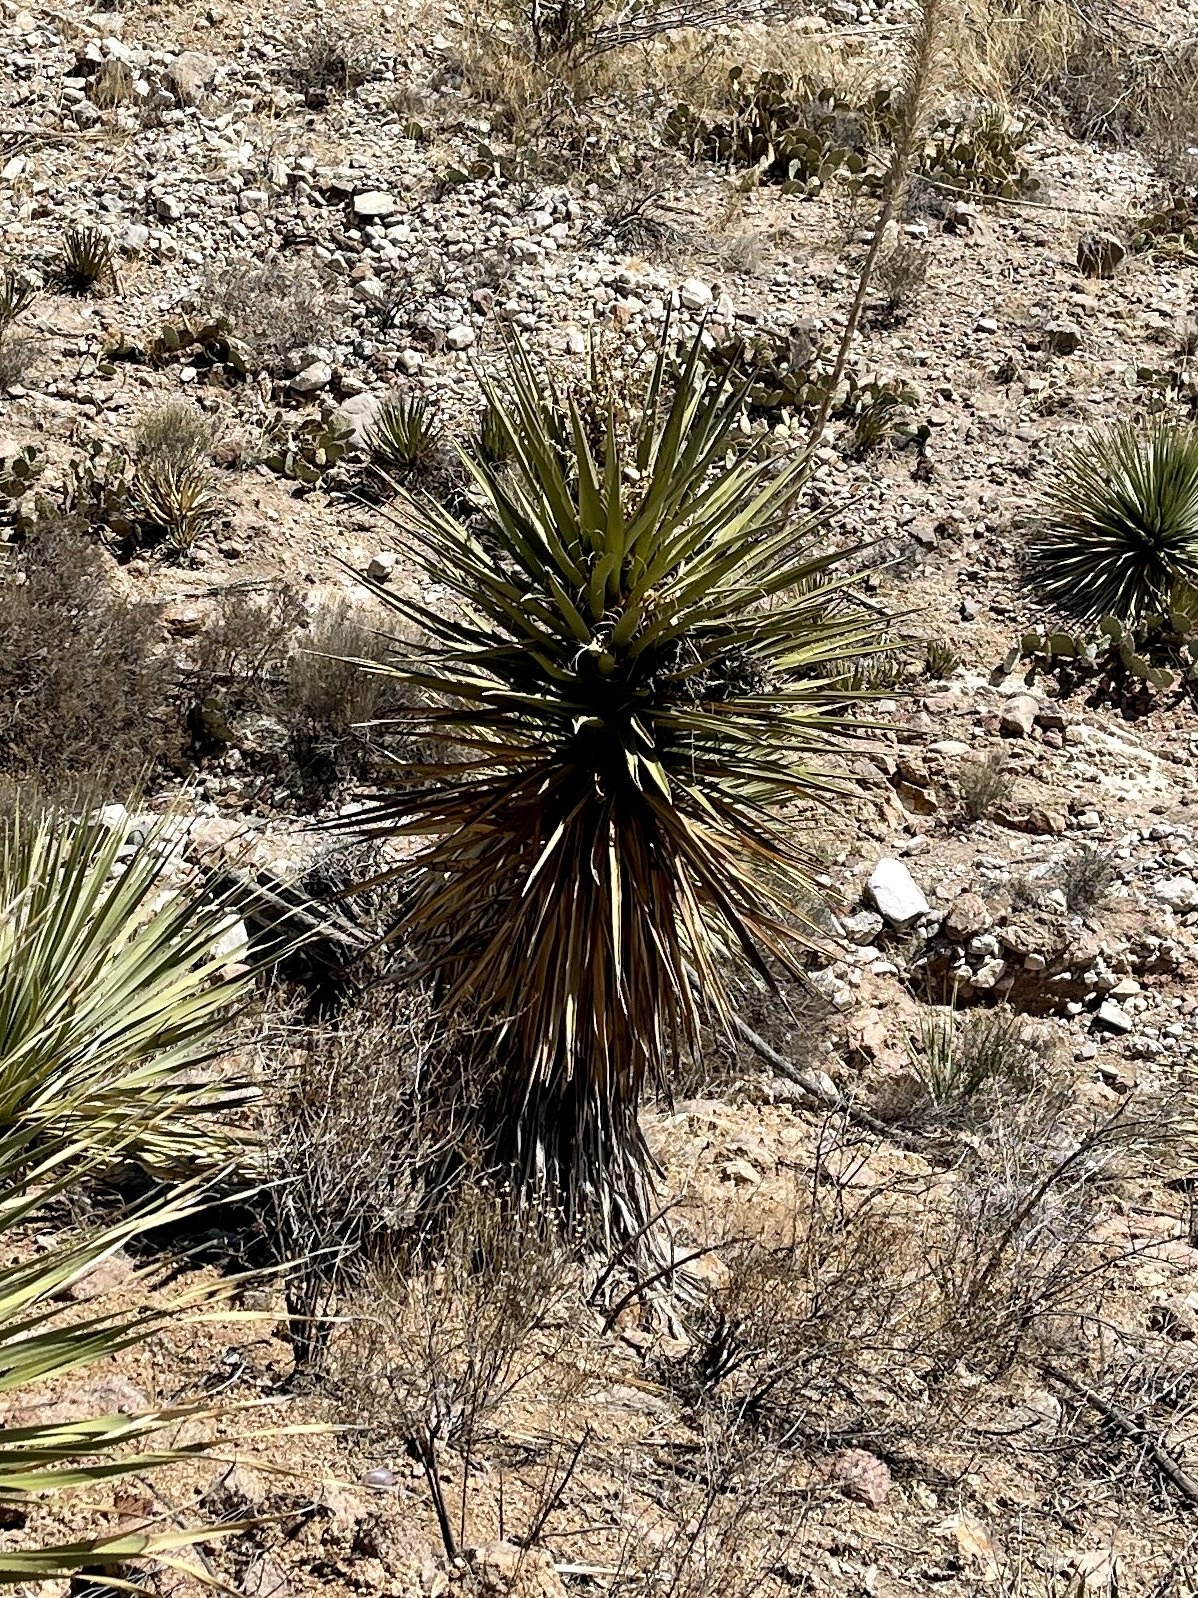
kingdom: Plantae
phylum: Tracheophyta
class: Liliopsida
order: Asparagales
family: Asparagaceae
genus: Yucca
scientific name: Yucca treculiana
